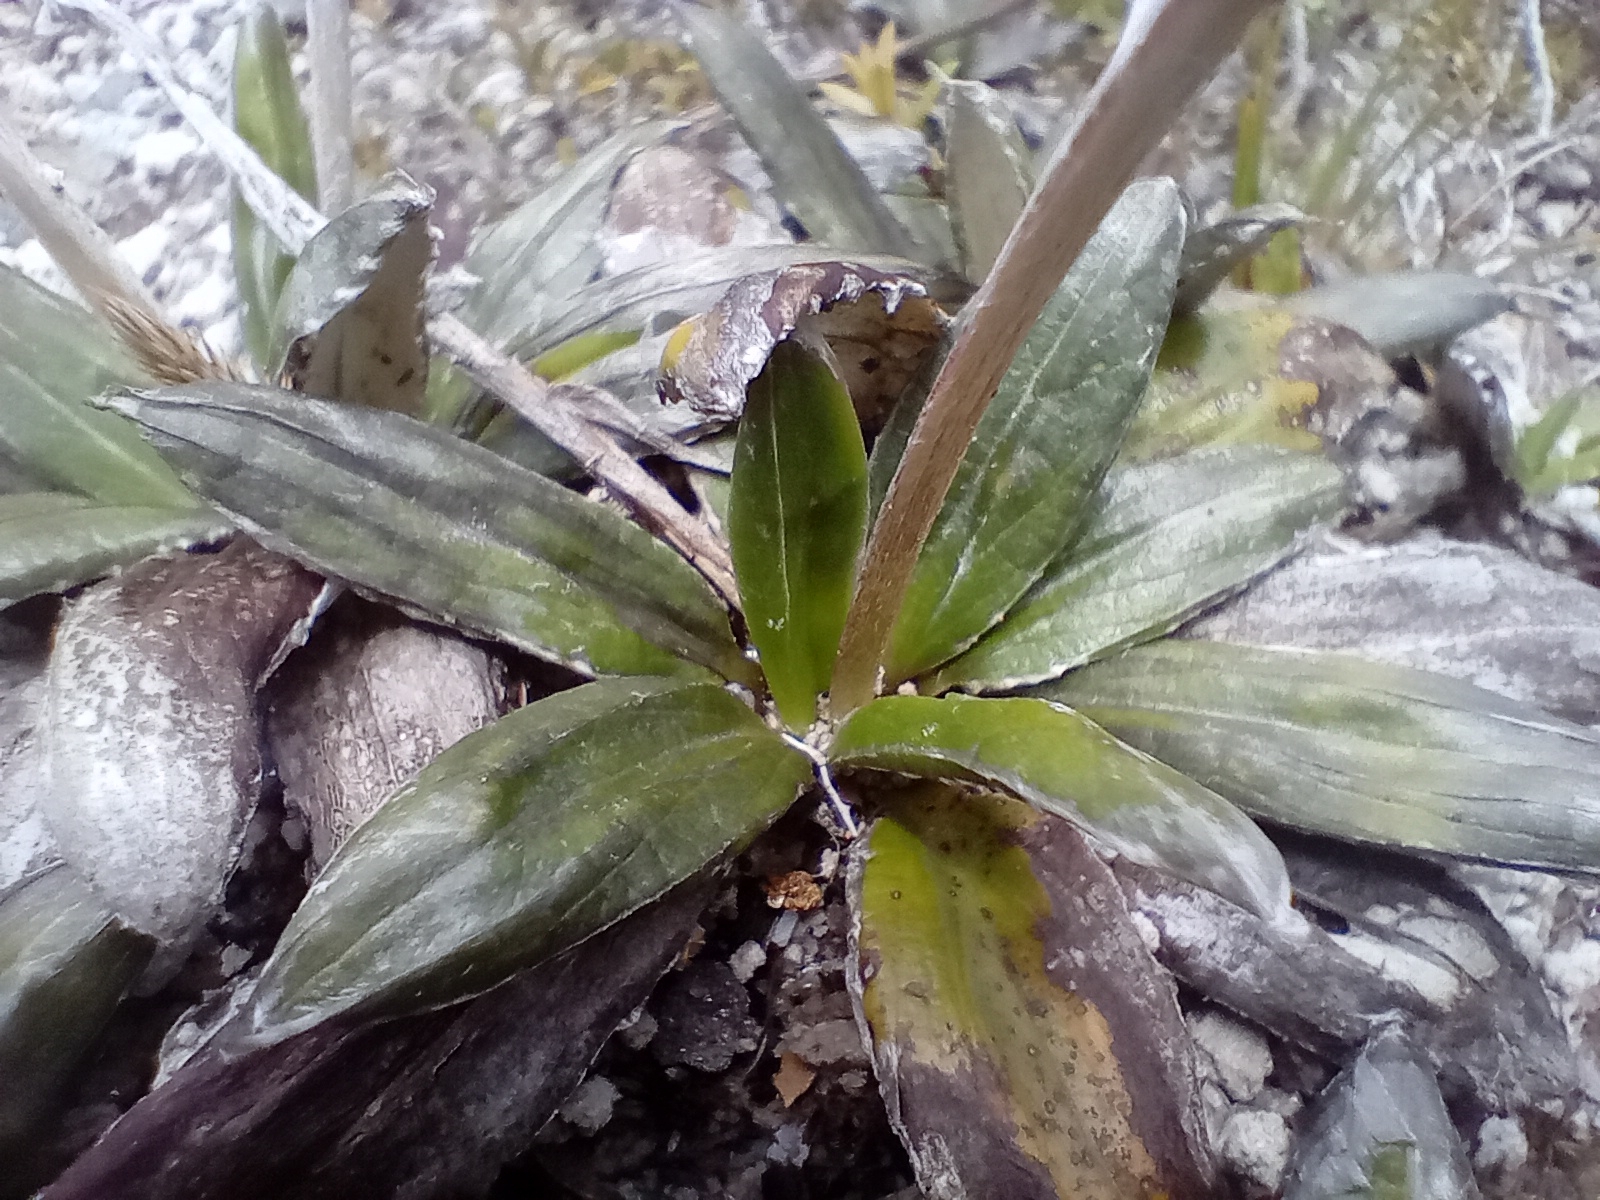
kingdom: Plantae
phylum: Tracheophyta
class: Magnoliopsida
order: Asterales
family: Asteraceae
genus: Celmisia
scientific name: Celmisia dubia
